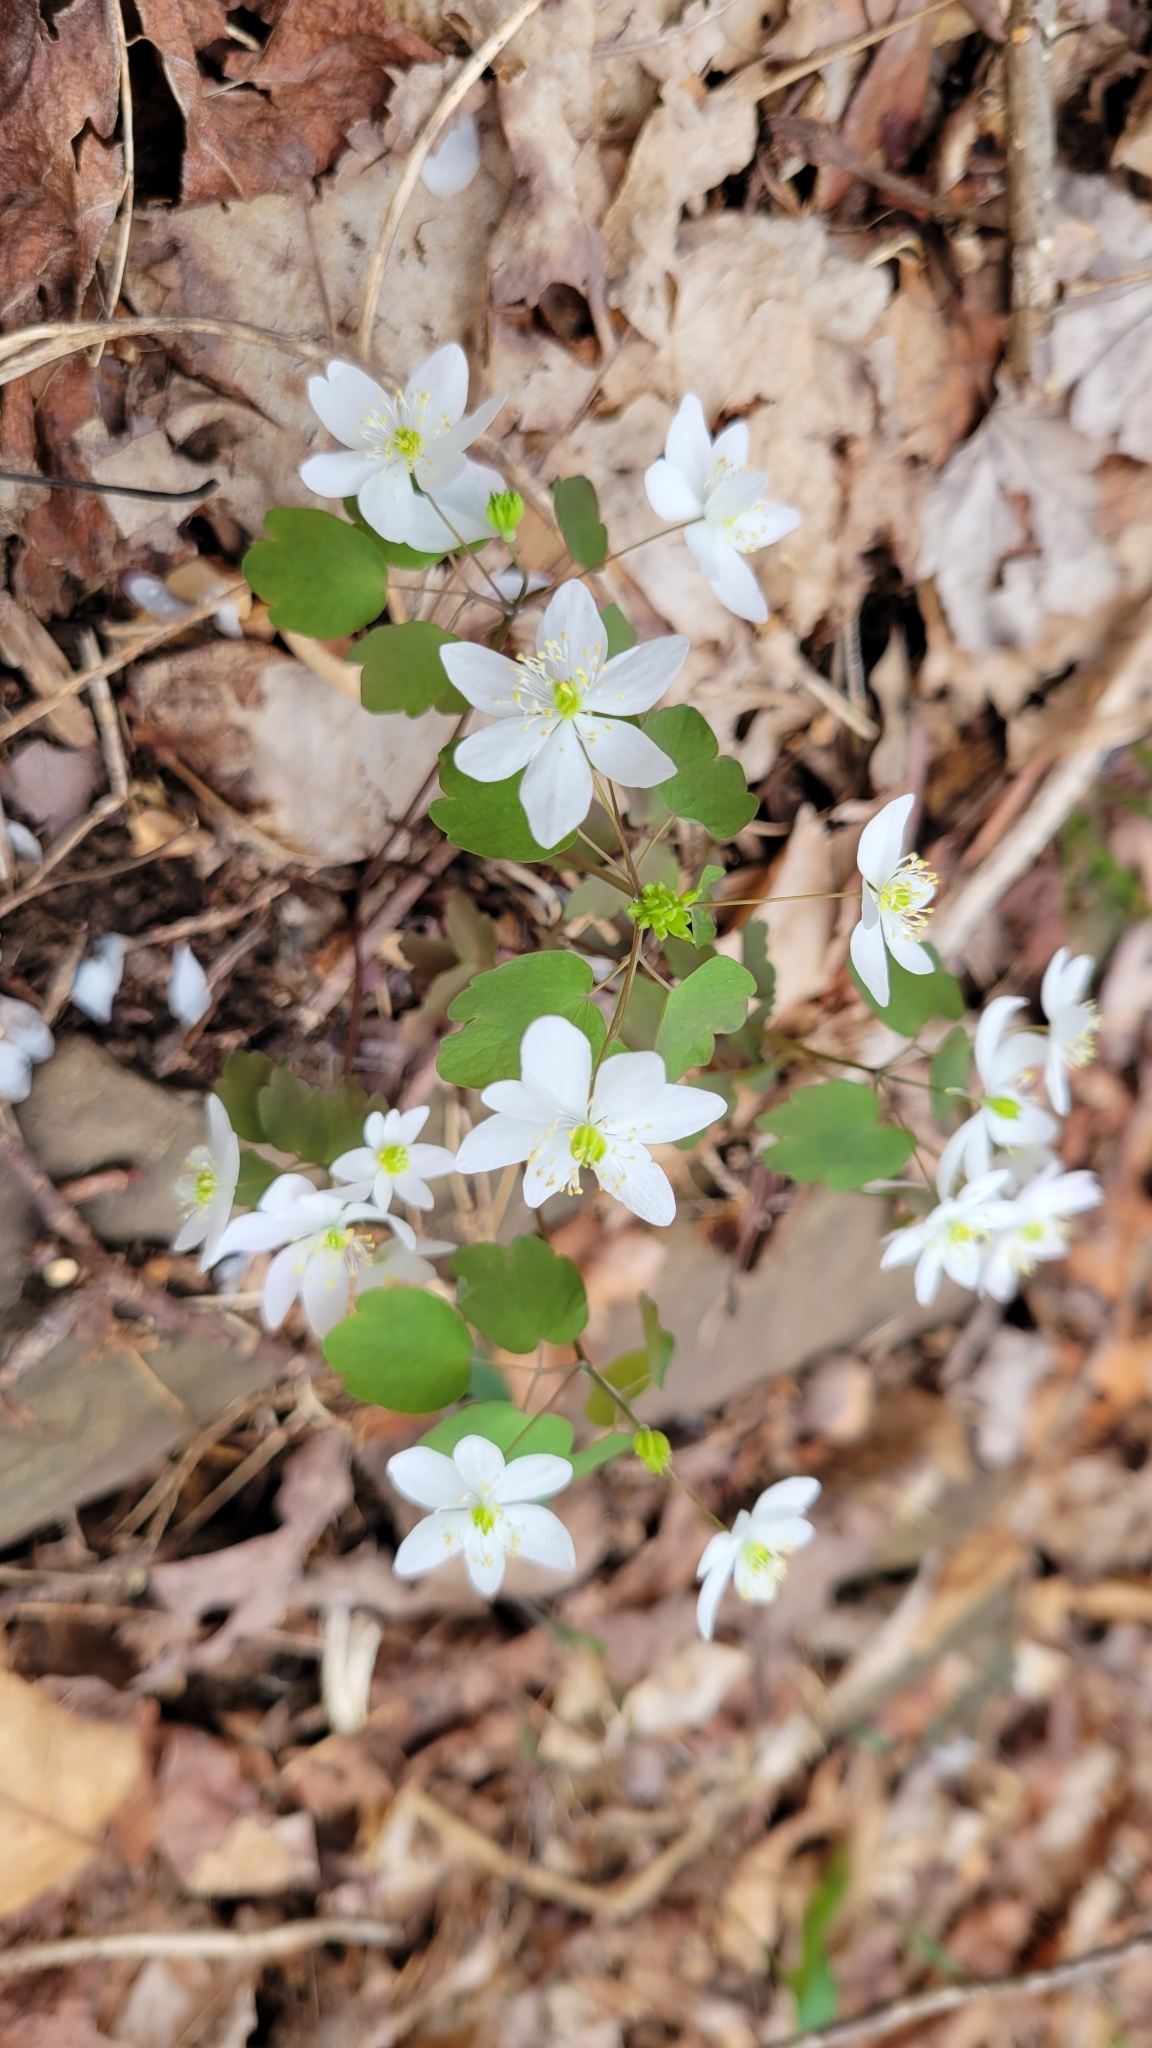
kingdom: Plantae
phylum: Tracheophyta
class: Magnoliopsida
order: Ranunculales
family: Ranunculaceae
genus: Thalictrum
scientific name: Thalictrum thalictroides
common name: Rue-anemone
